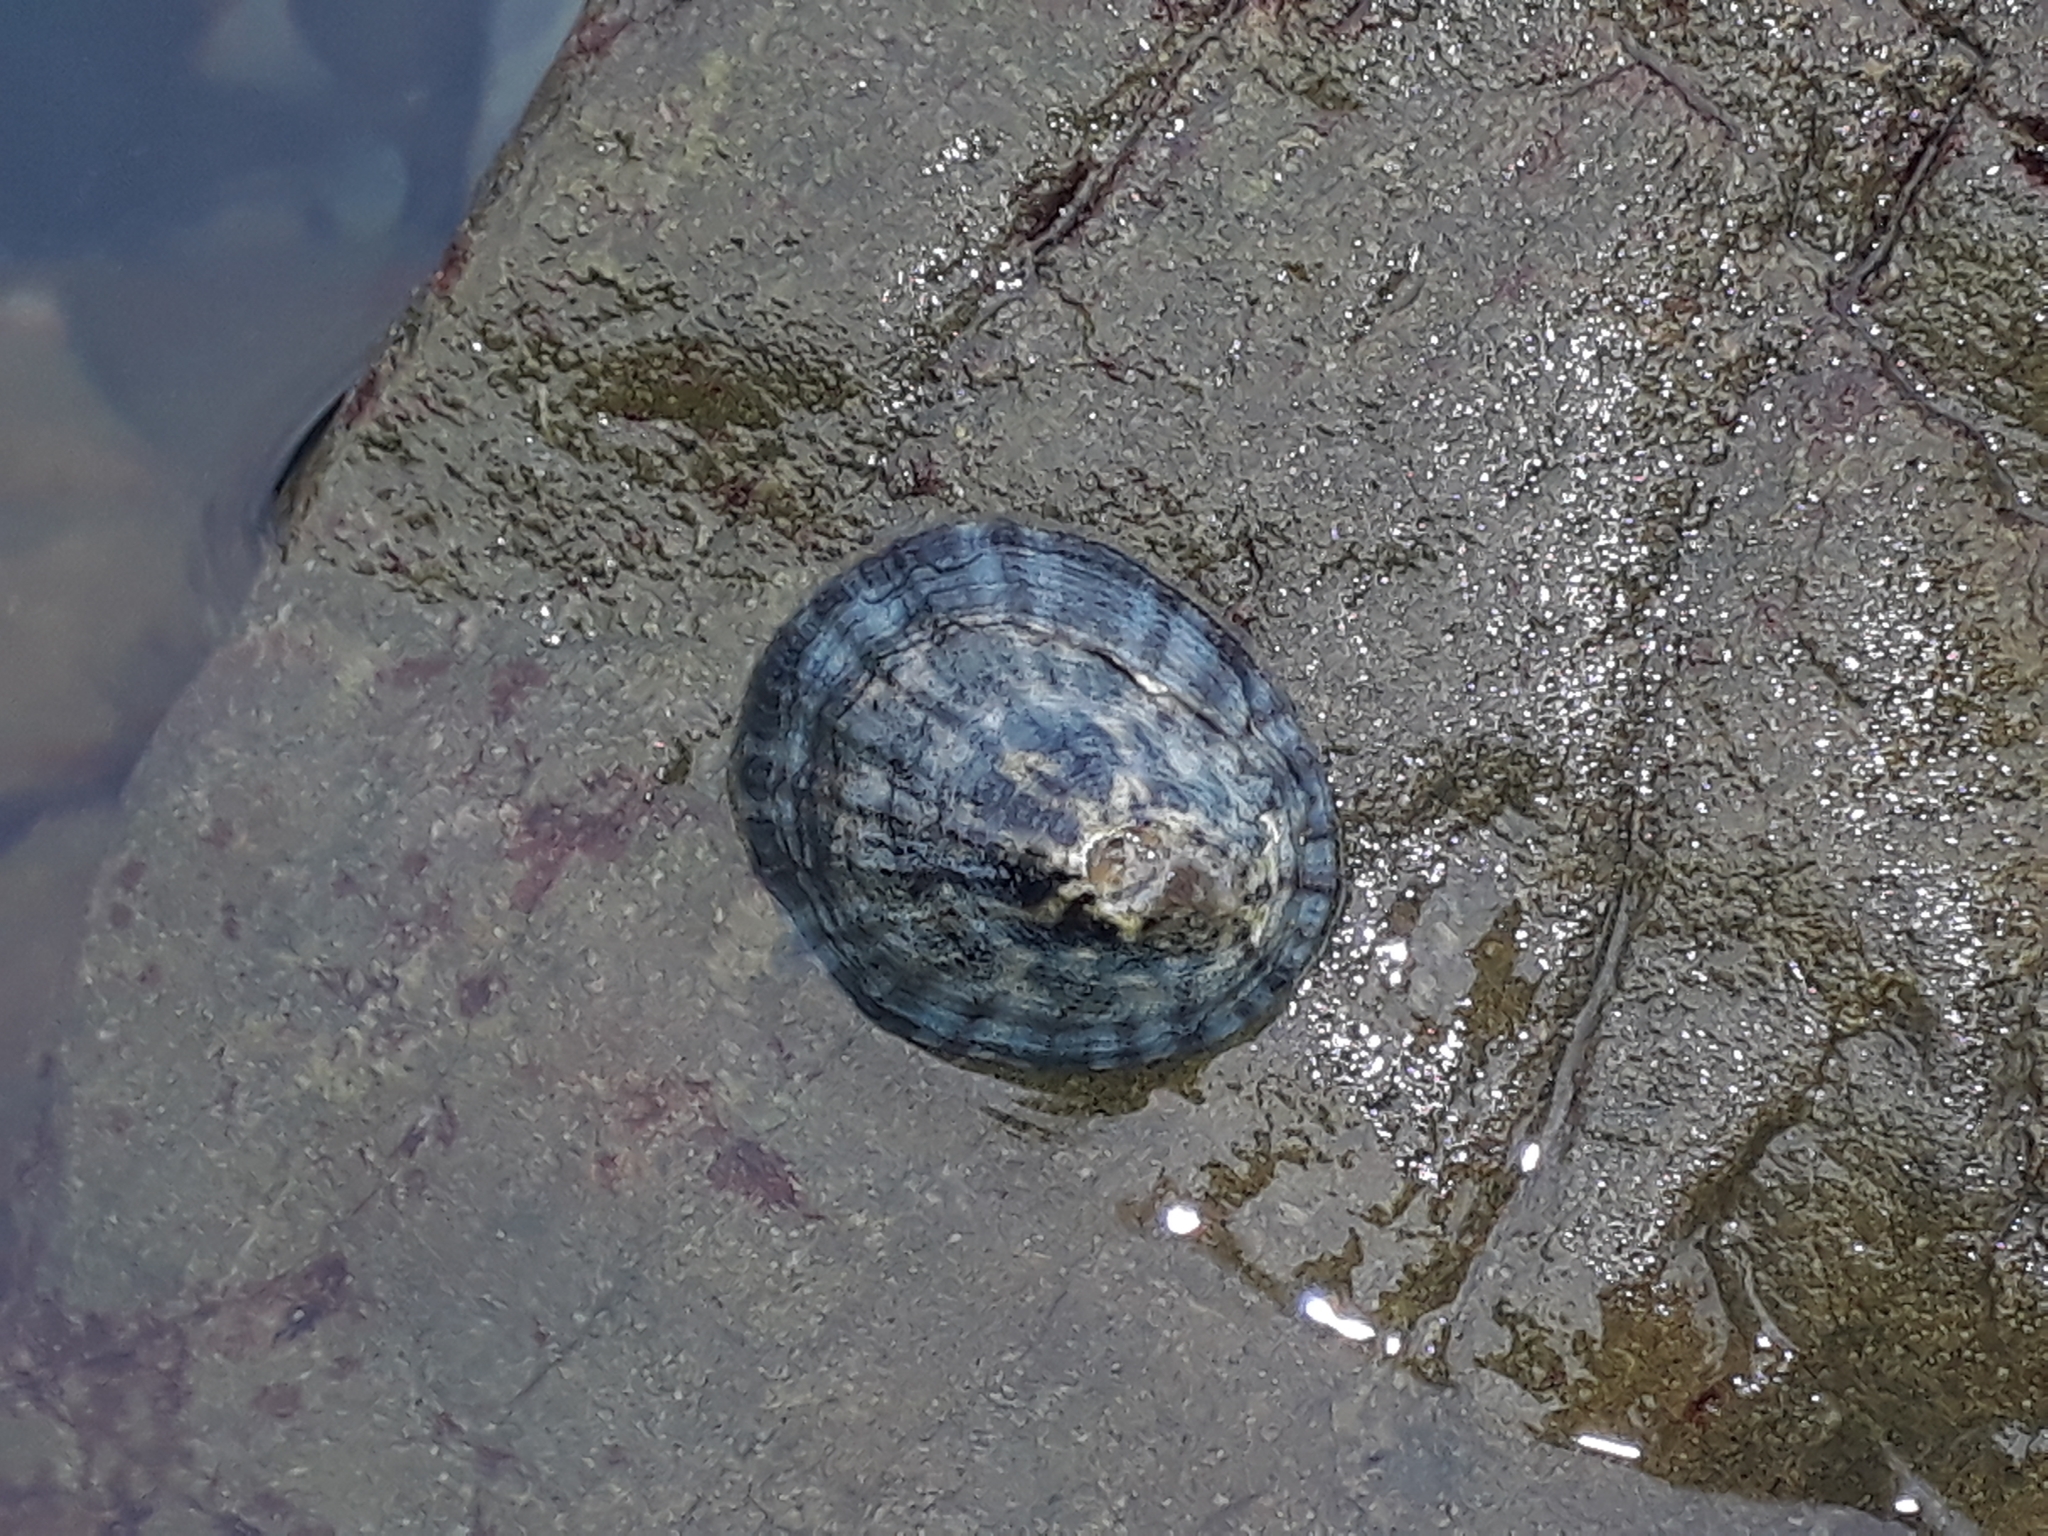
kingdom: Animalia
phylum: Mollusca
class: Gastropoda
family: Nacellidae
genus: Cellana
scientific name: Cellana radians
